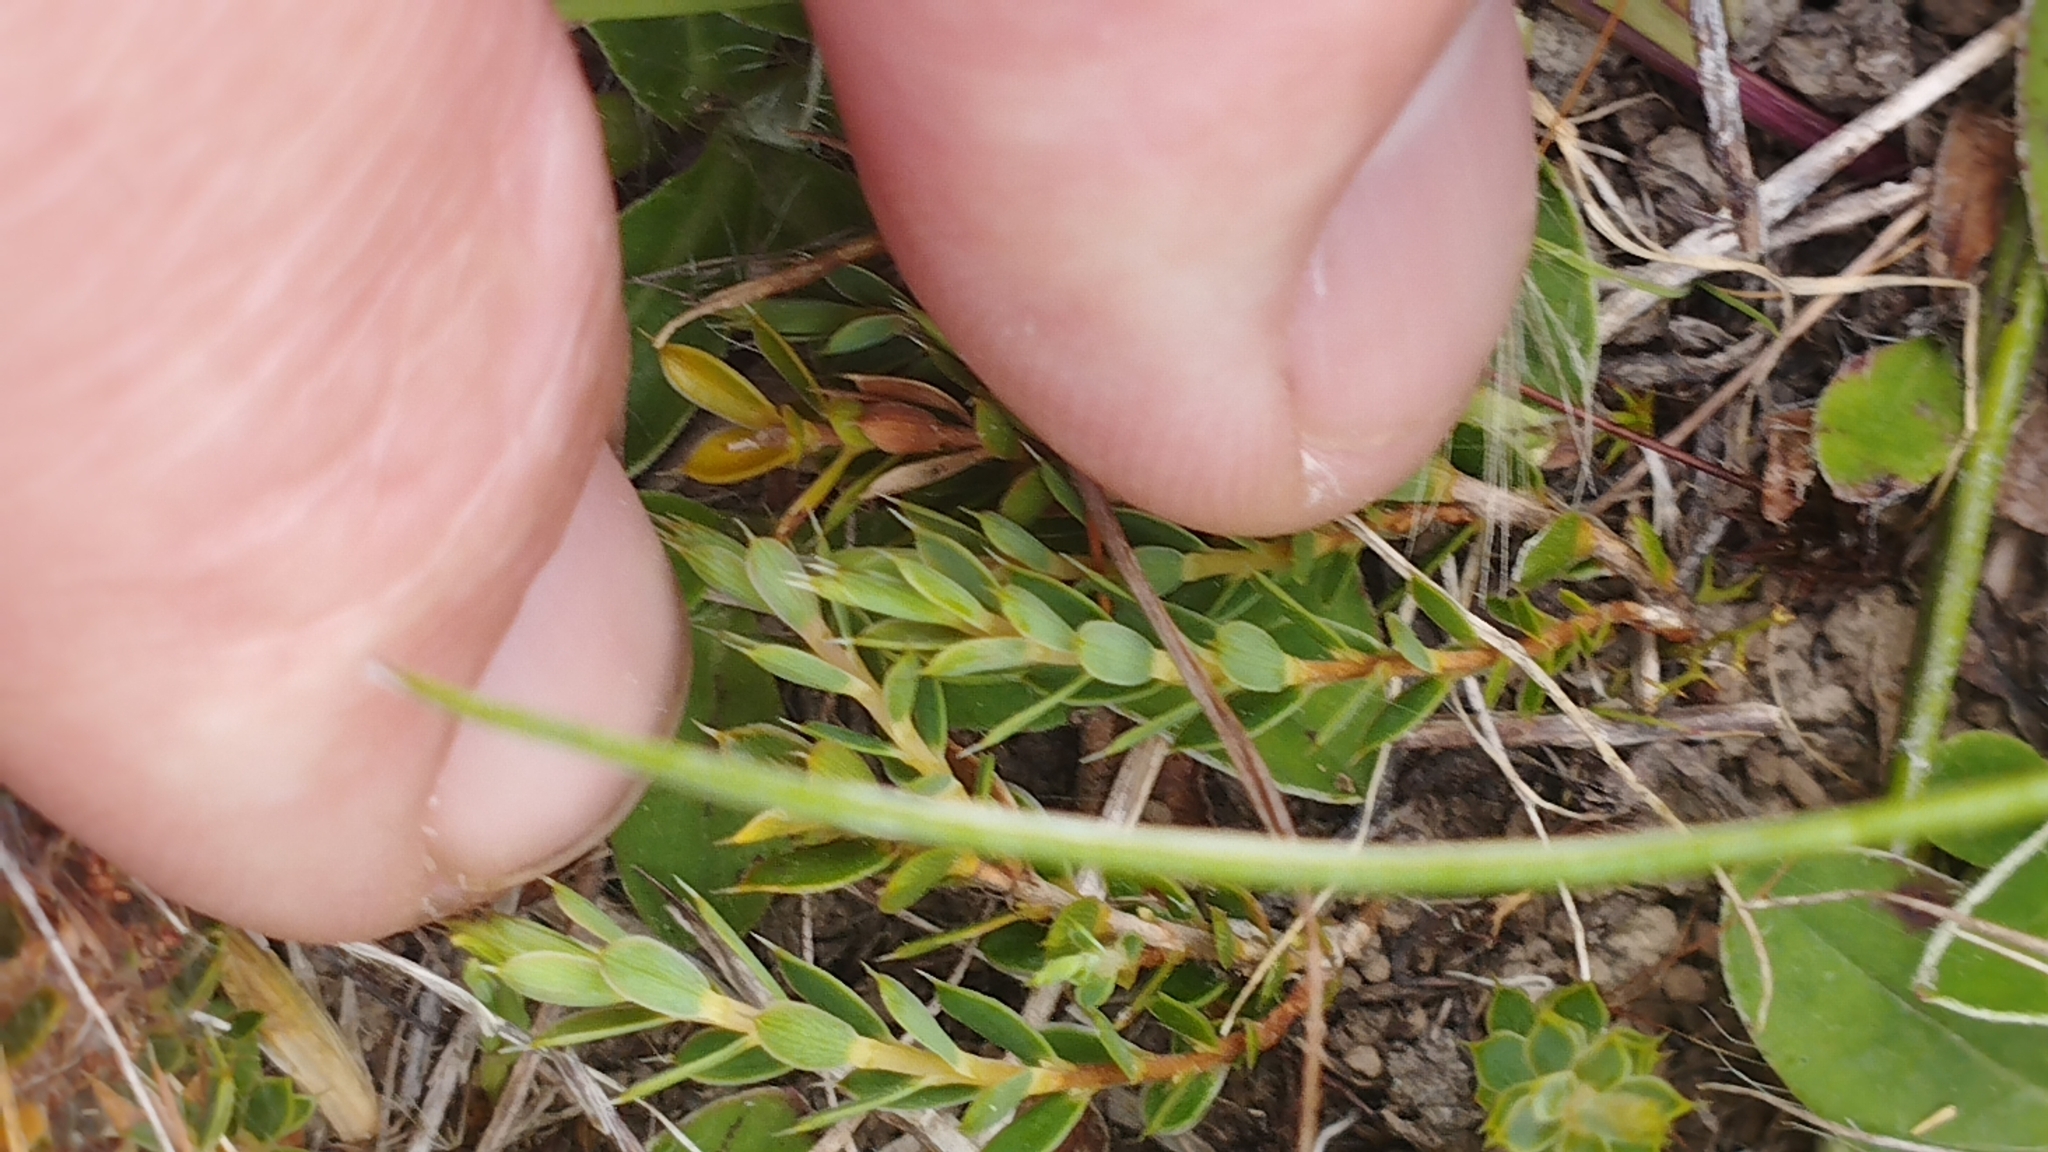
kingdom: Plantae
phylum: Tracheophyta
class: Magnoliopsida
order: Ericales
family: Ericaceae
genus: Styphelia
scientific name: Styphelia nesophila
